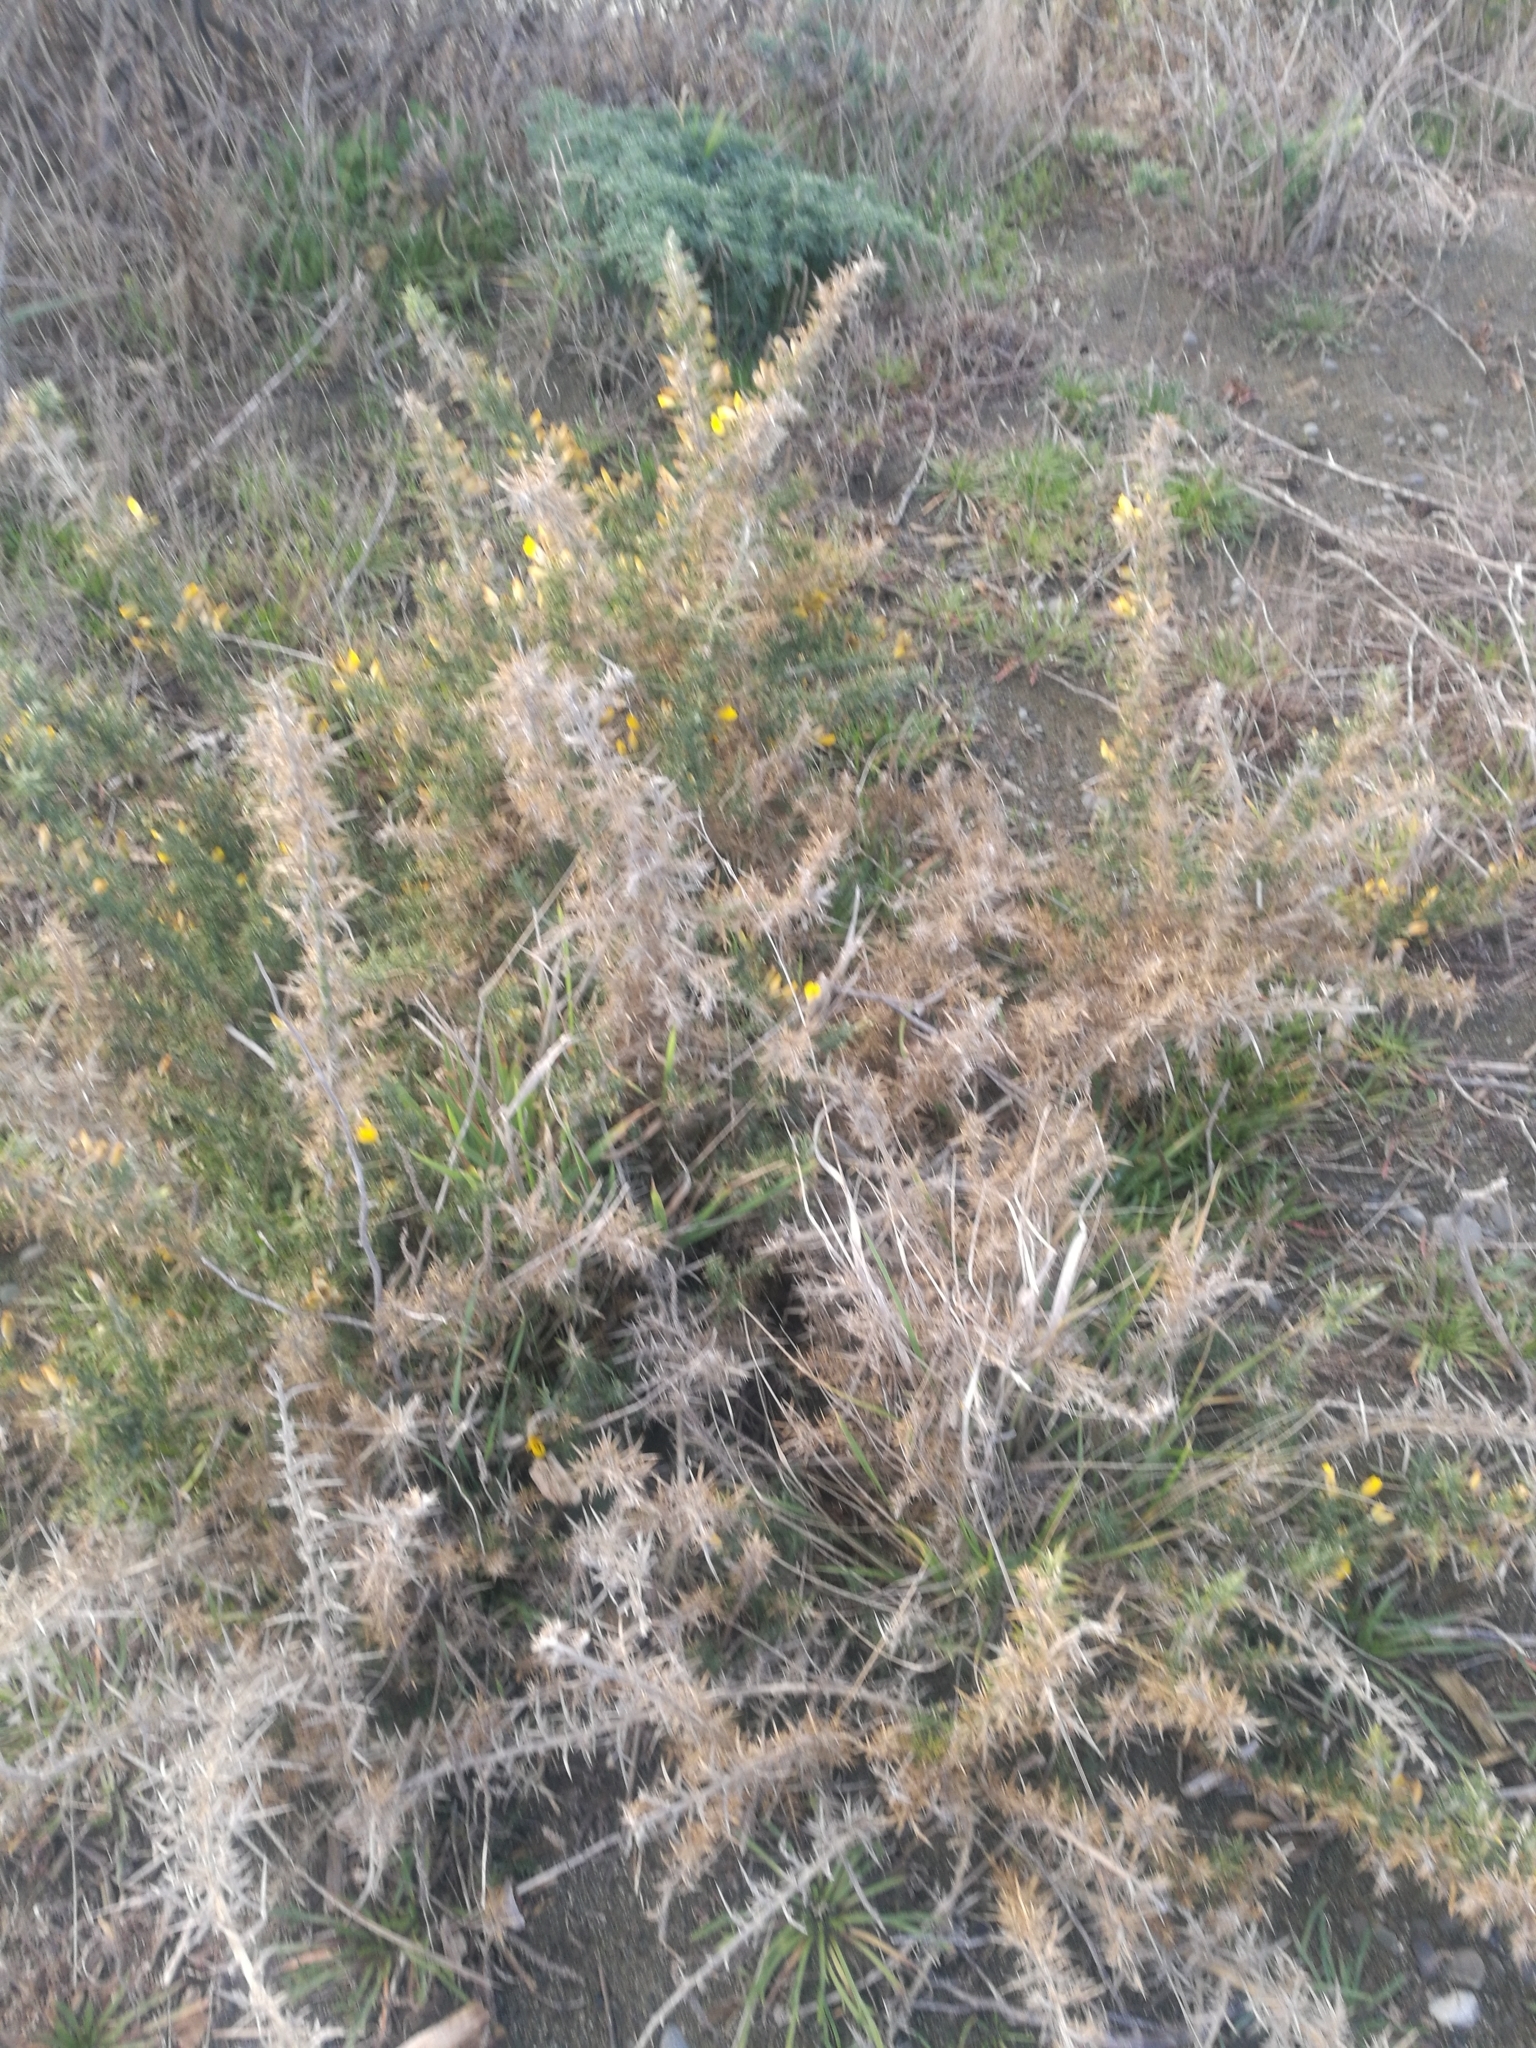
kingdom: Plantae
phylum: Tracheophyta
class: Magnoliopsida
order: Fabales
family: Fabaceae
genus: Ulex
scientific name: Ulex europaeus
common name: Common gorse
